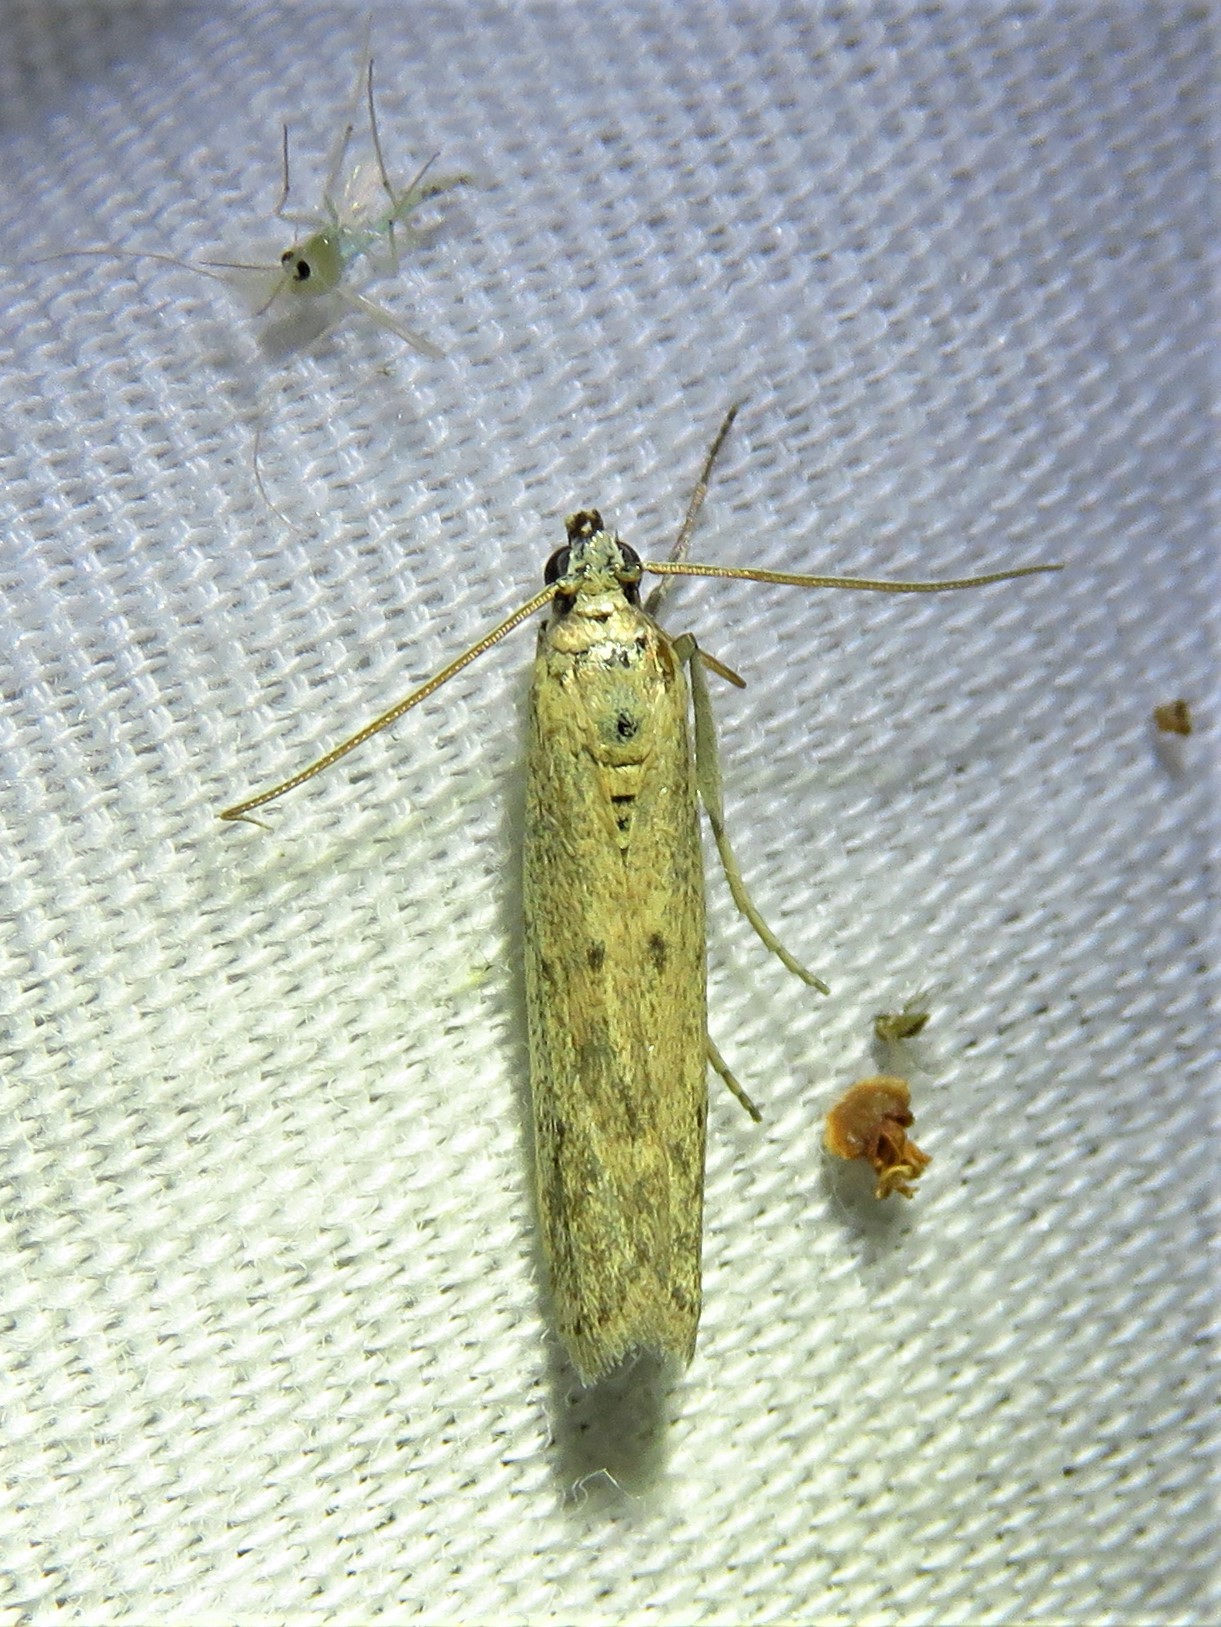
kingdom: Animalia
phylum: Arthropoda
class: Insecta
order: Lepidoptera
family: Pyralidae
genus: Homoeosoma
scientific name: Homoeosoma electella
